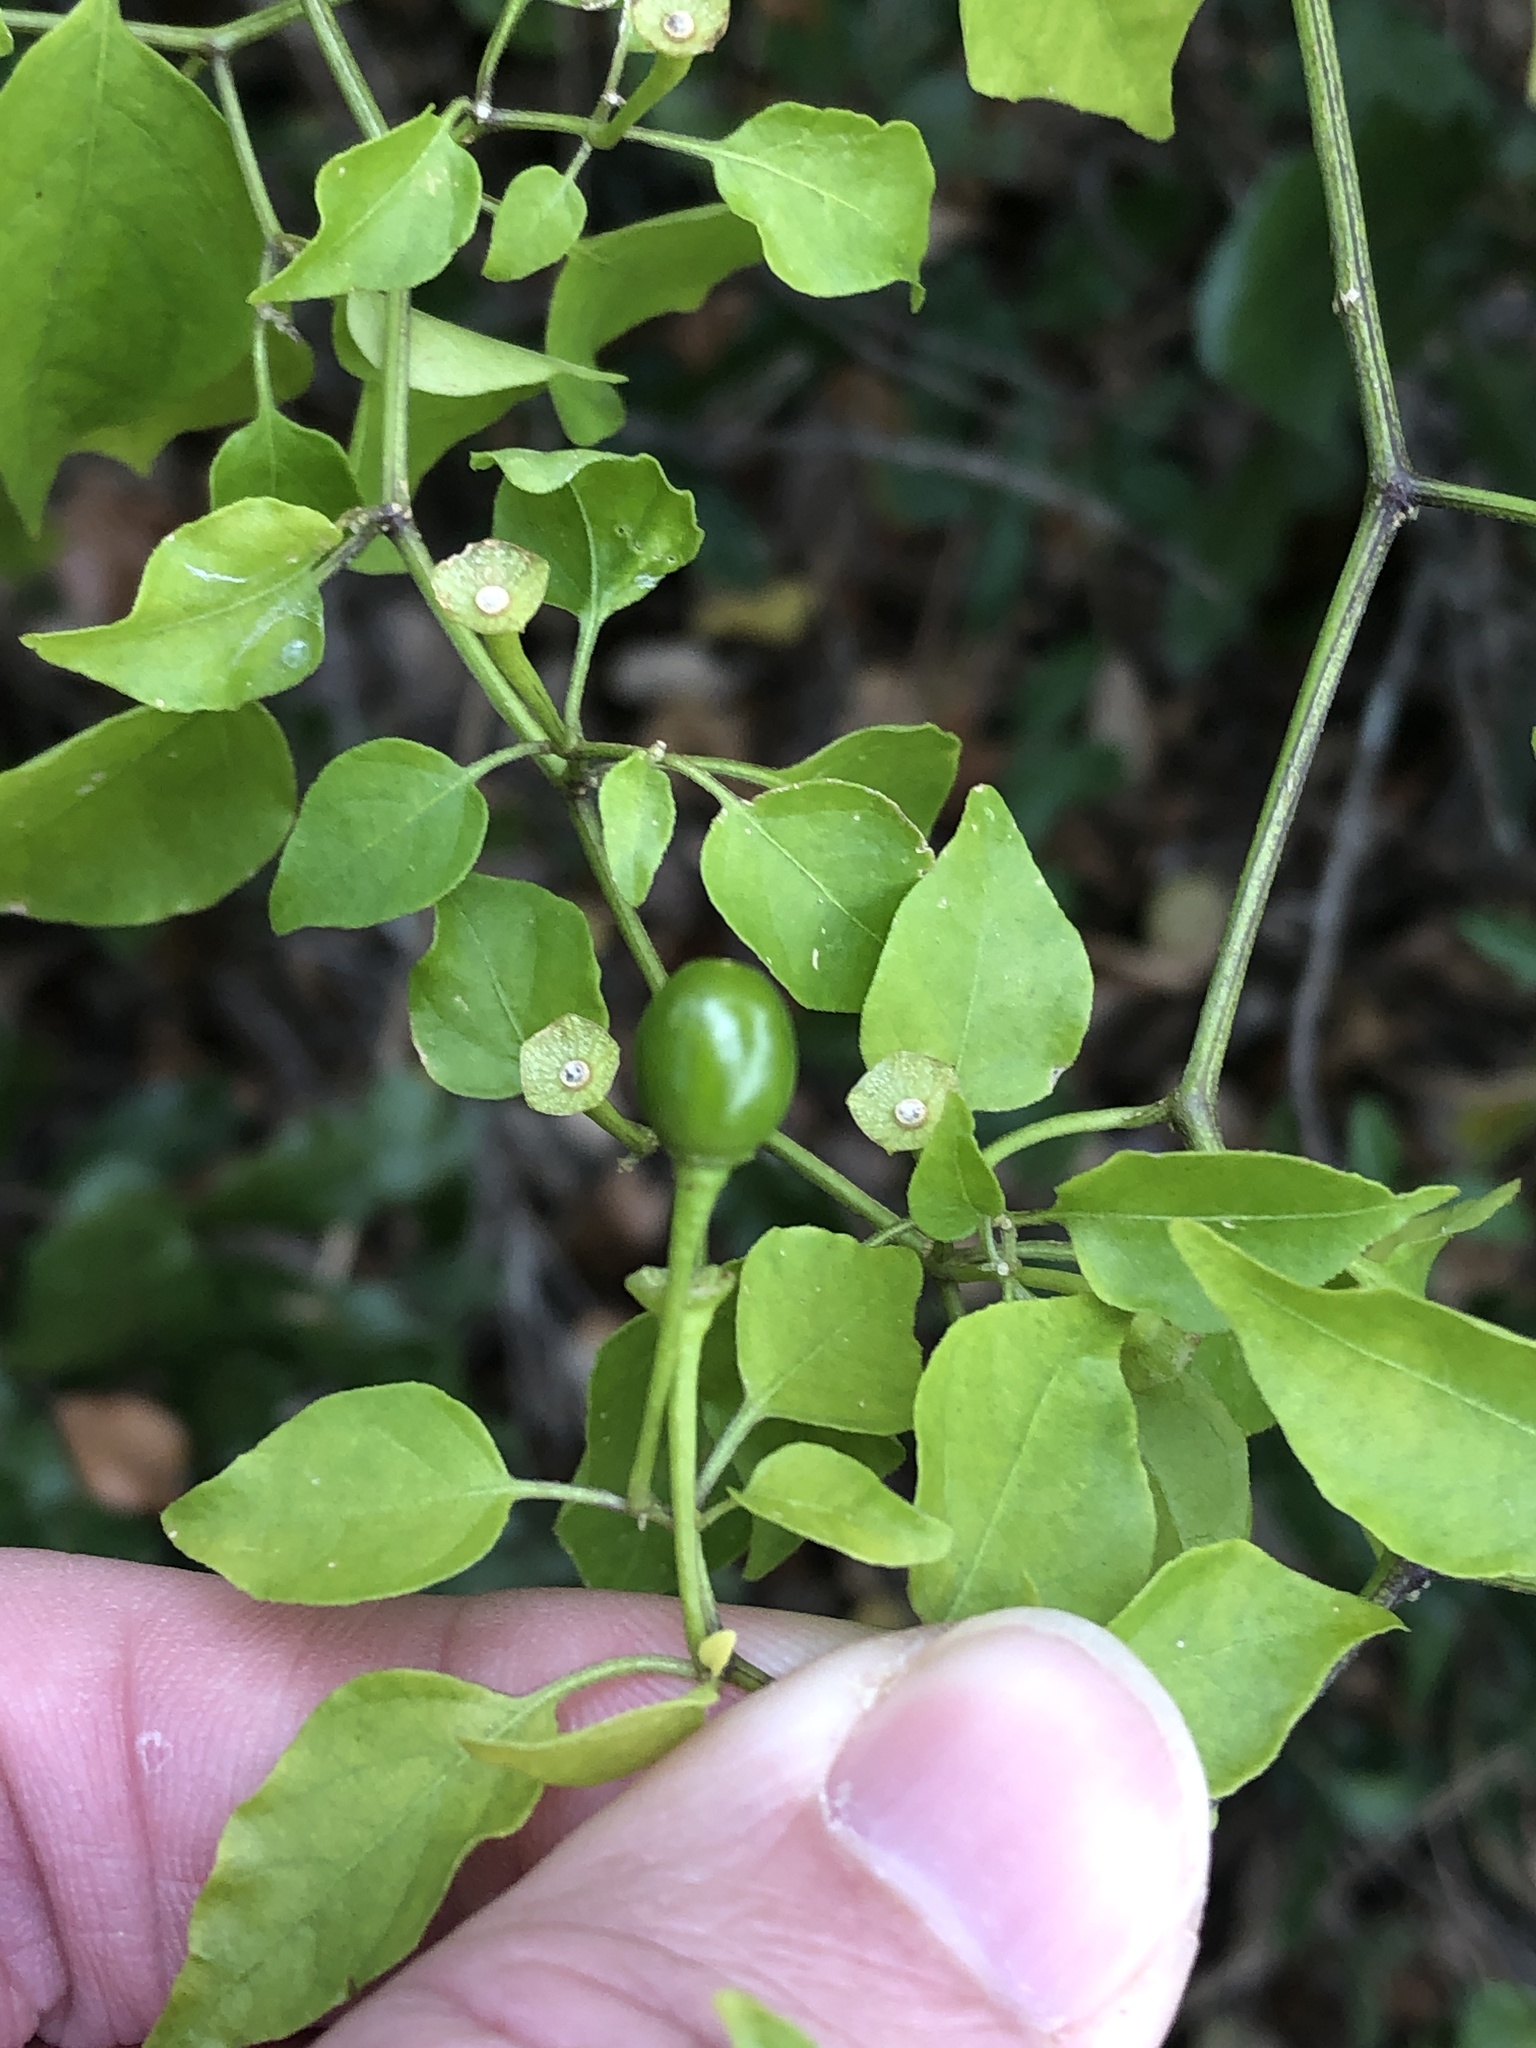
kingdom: Plantae
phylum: Tracheophyta
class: Magnoliopsida
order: Solanales
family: Solanaceae
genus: Capsicum
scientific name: Capsicum annuum
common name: Sweet pepper
